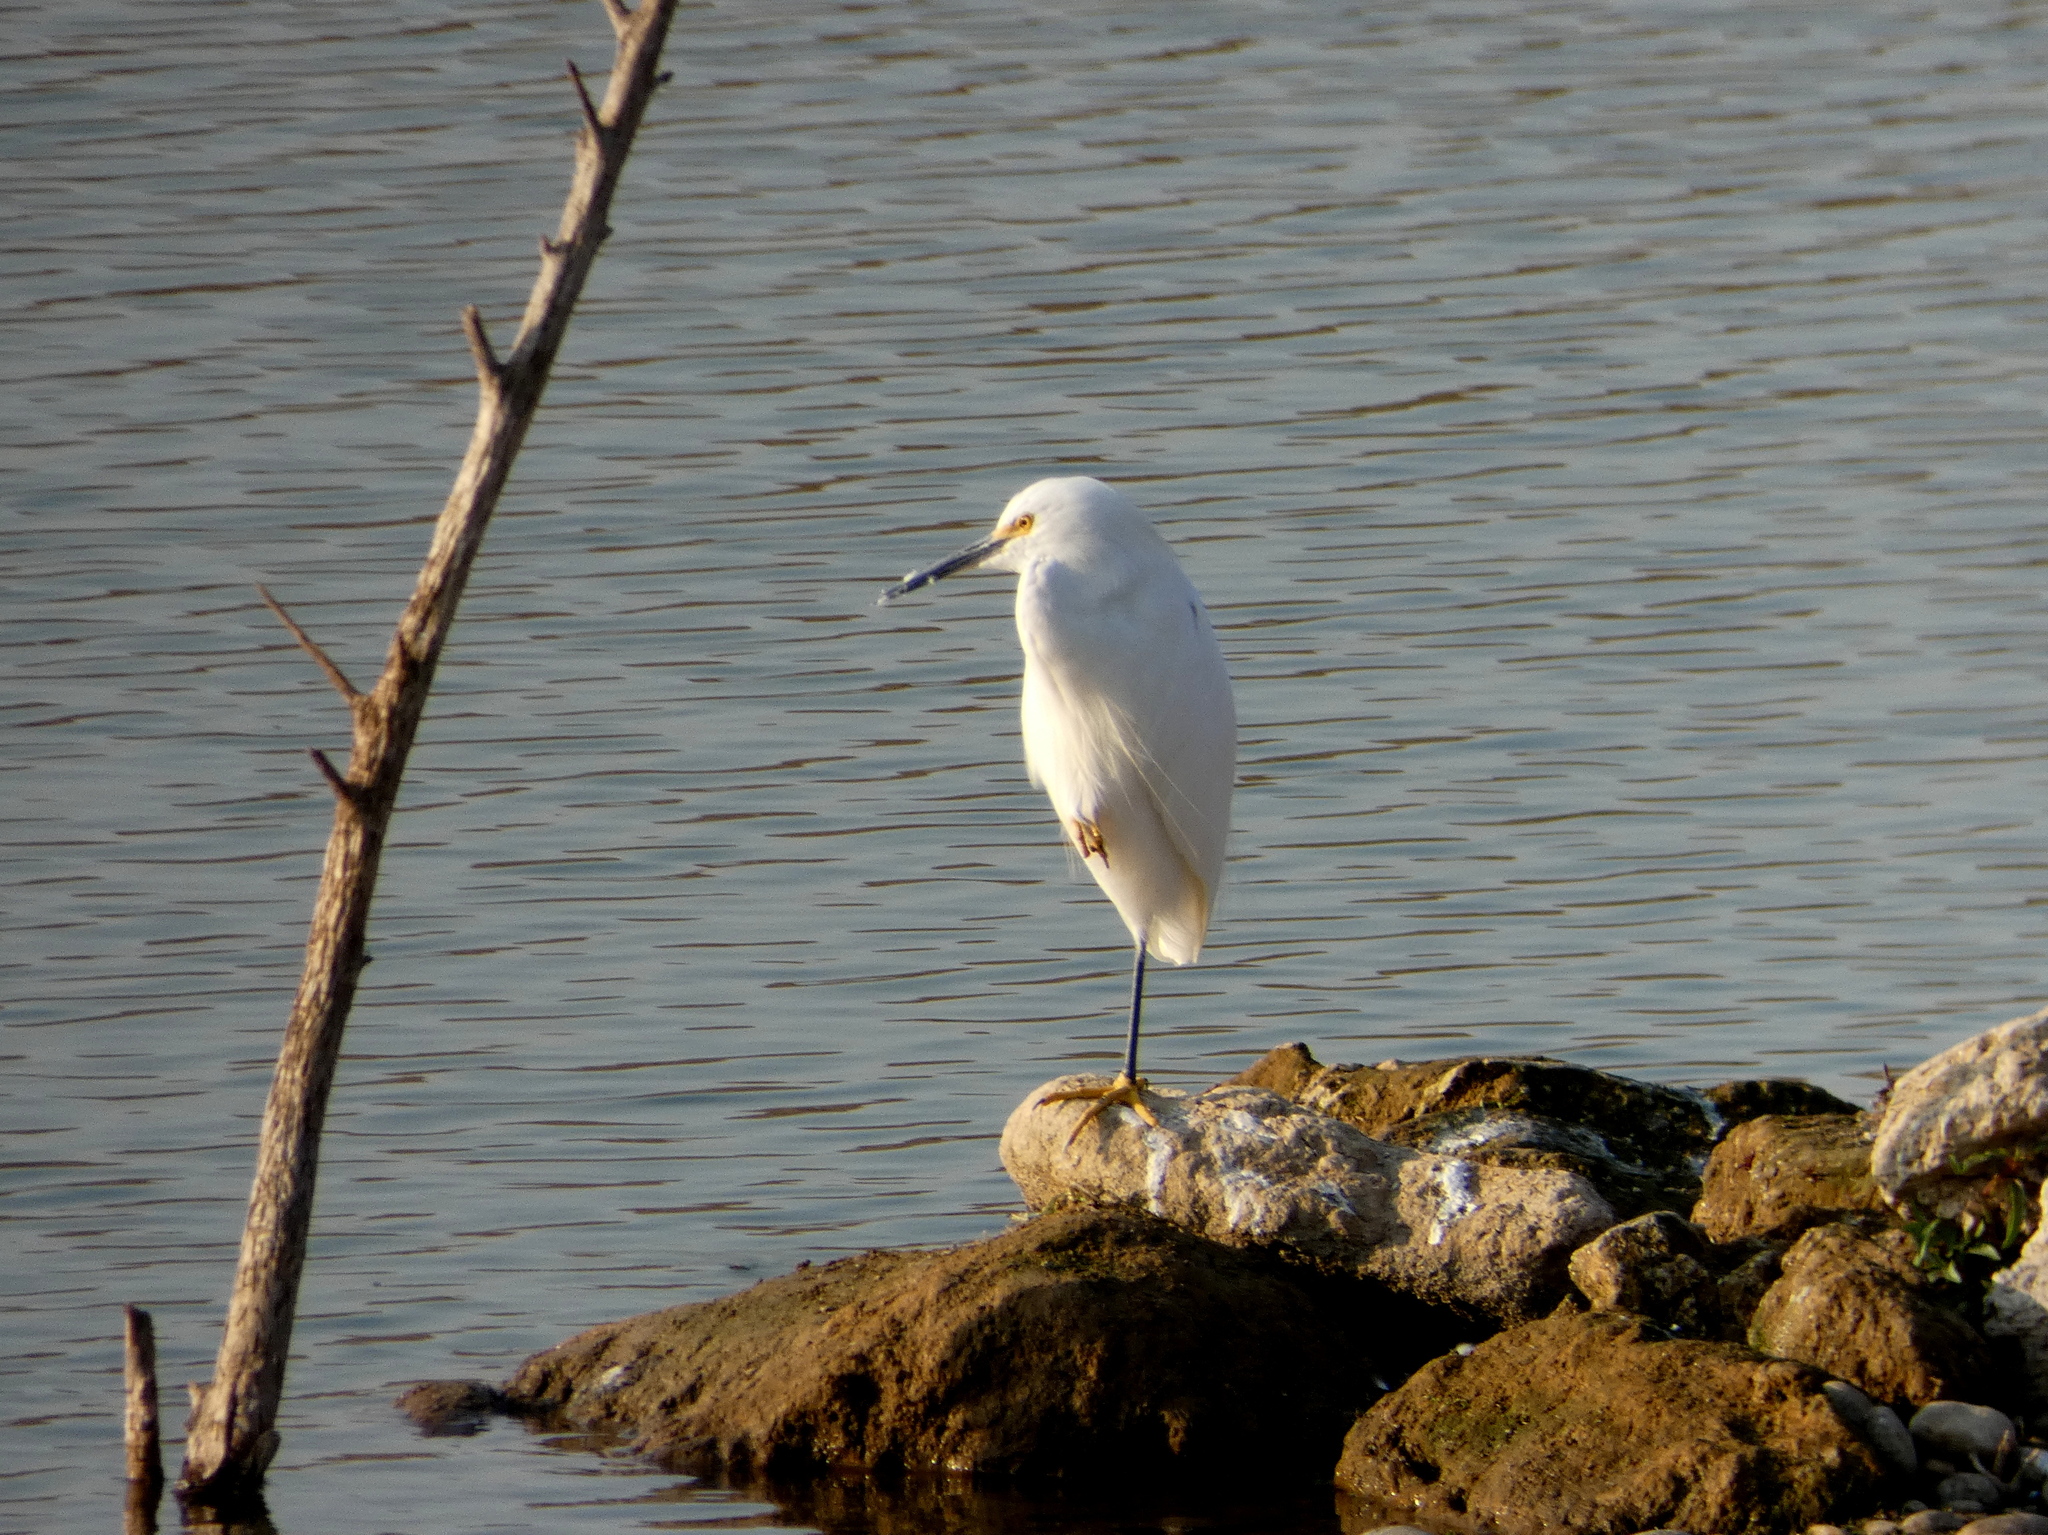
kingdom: Animalia
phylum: Chordata
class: Aves
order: Pelecaniformes
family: Ardeidae
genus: Egretta
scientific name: Egretta thula
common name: Snowy egret
